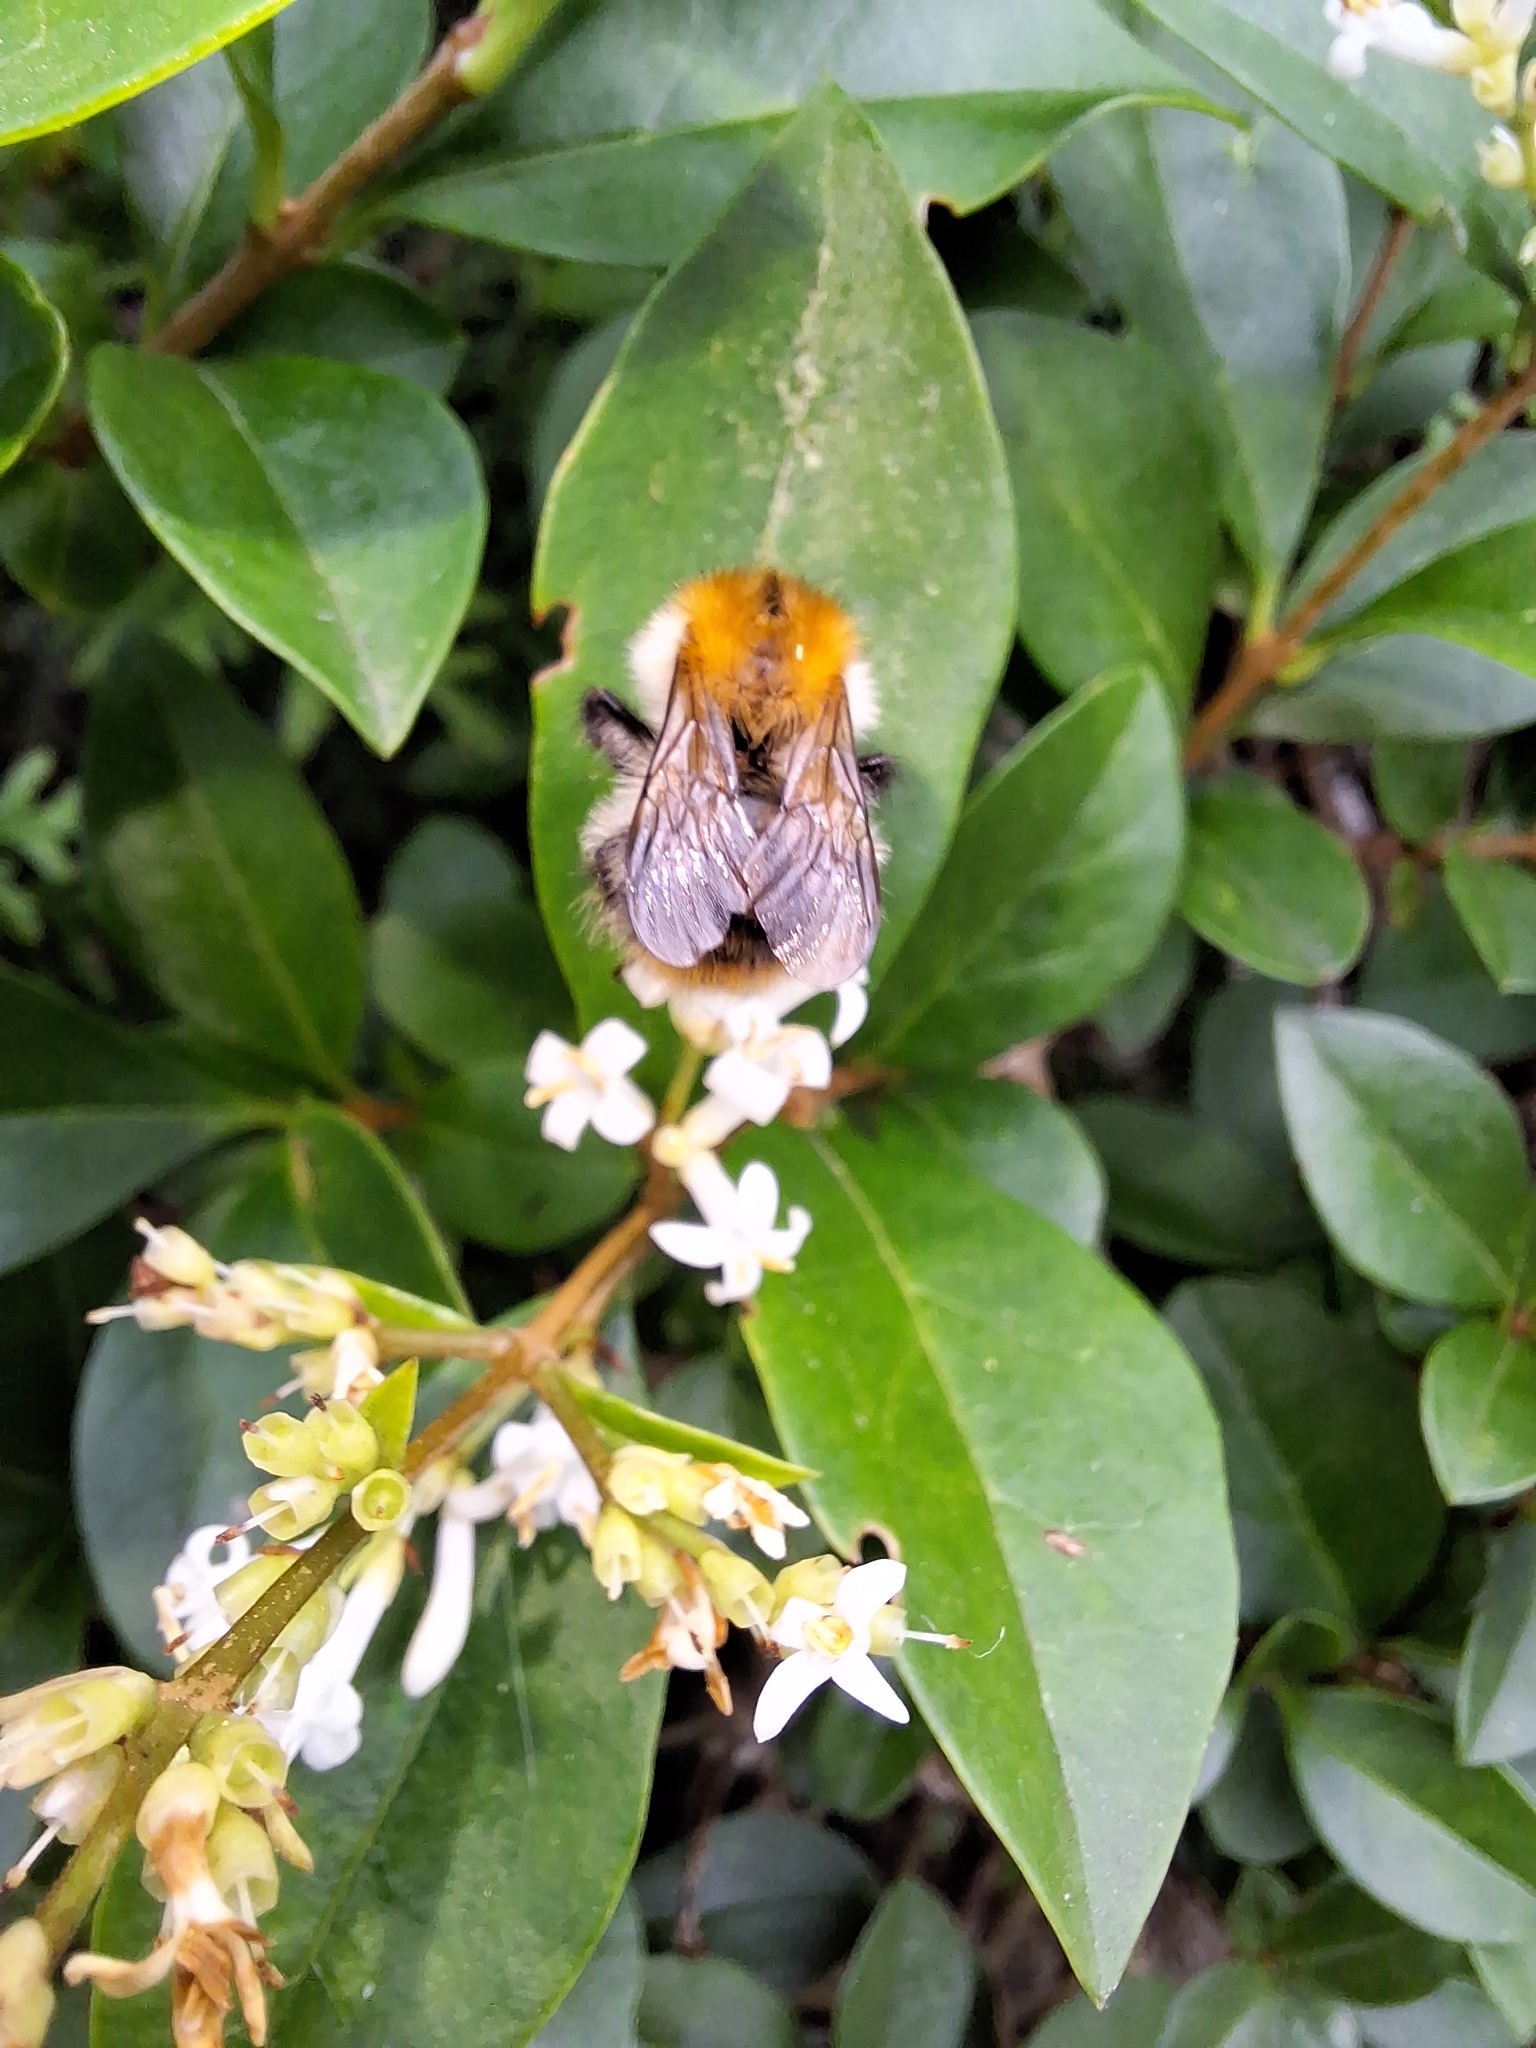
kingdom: Animalia
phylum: Arthropoda
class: Insecta
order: Hymenoptera
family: Apidae
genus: Bombus
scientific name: Bombus pascuorum
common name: Common carder bee
